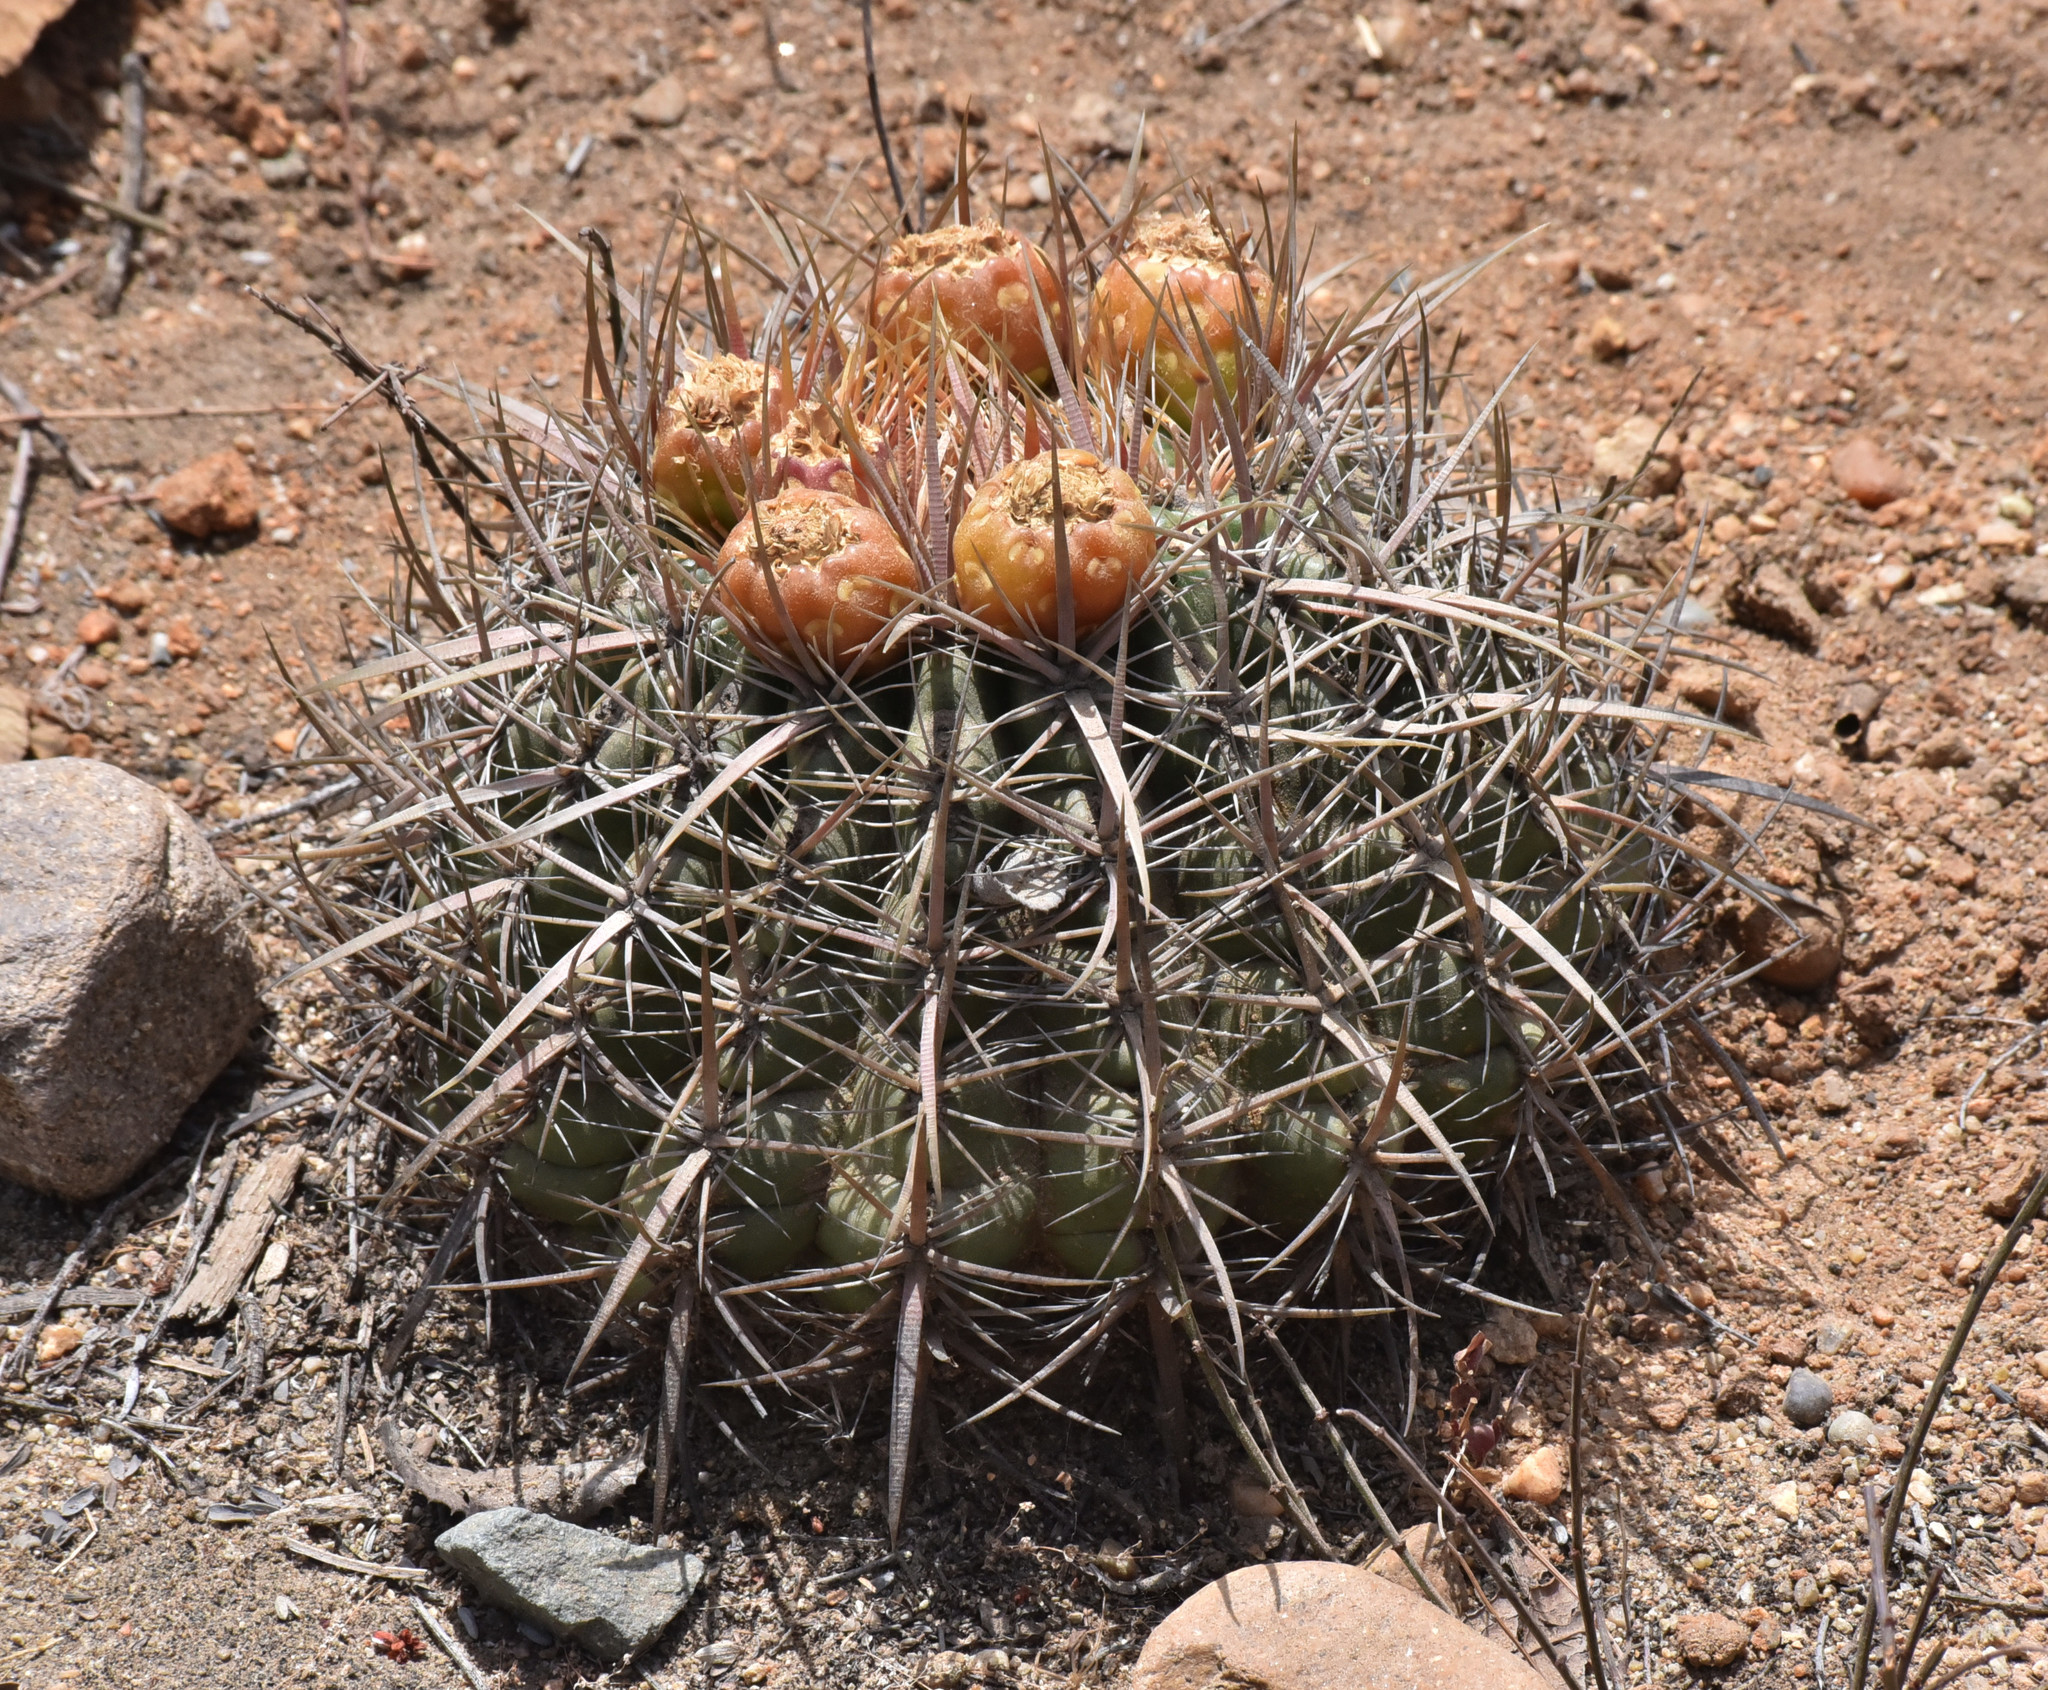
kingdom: Plantae
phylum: Tracheophyta
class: Magnoliopsida
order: Caryophyllales
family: Cactaceae
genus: Ferocactus
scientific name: Ferocactus viridescens
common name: San diego barrel cactus
